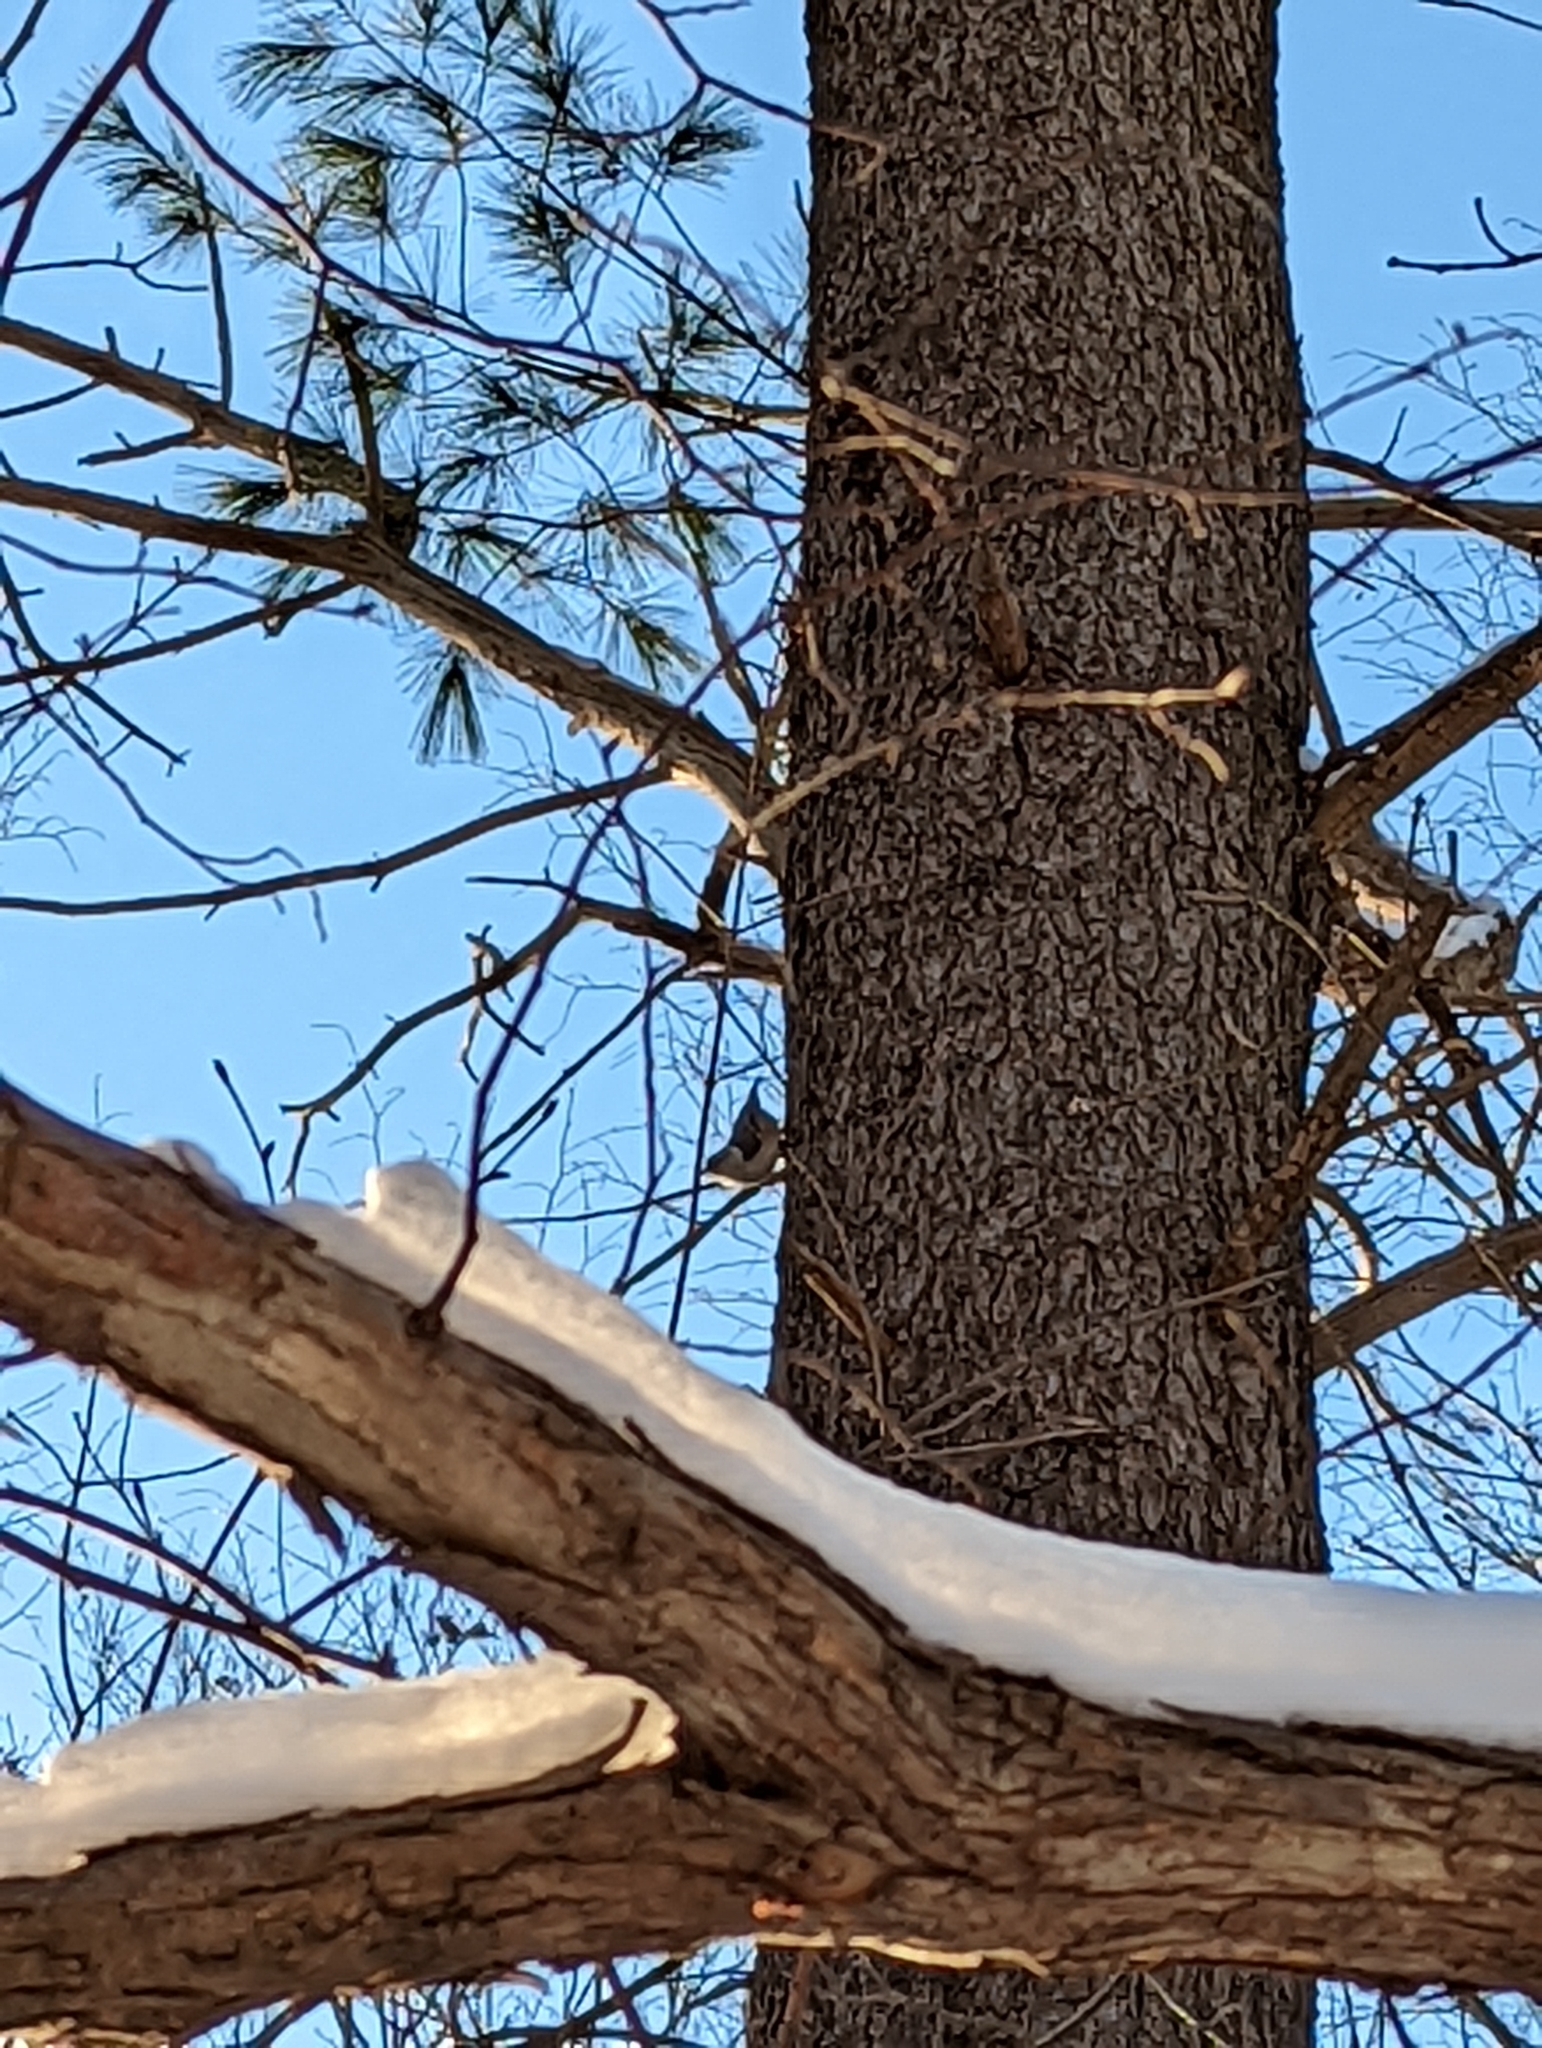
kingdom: Animalia
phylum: Chordata
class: Aves
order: Passeriformes
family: Sittidae
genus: Sitta
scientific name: Sitta carolinensis
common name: White-breasted nuthatch
